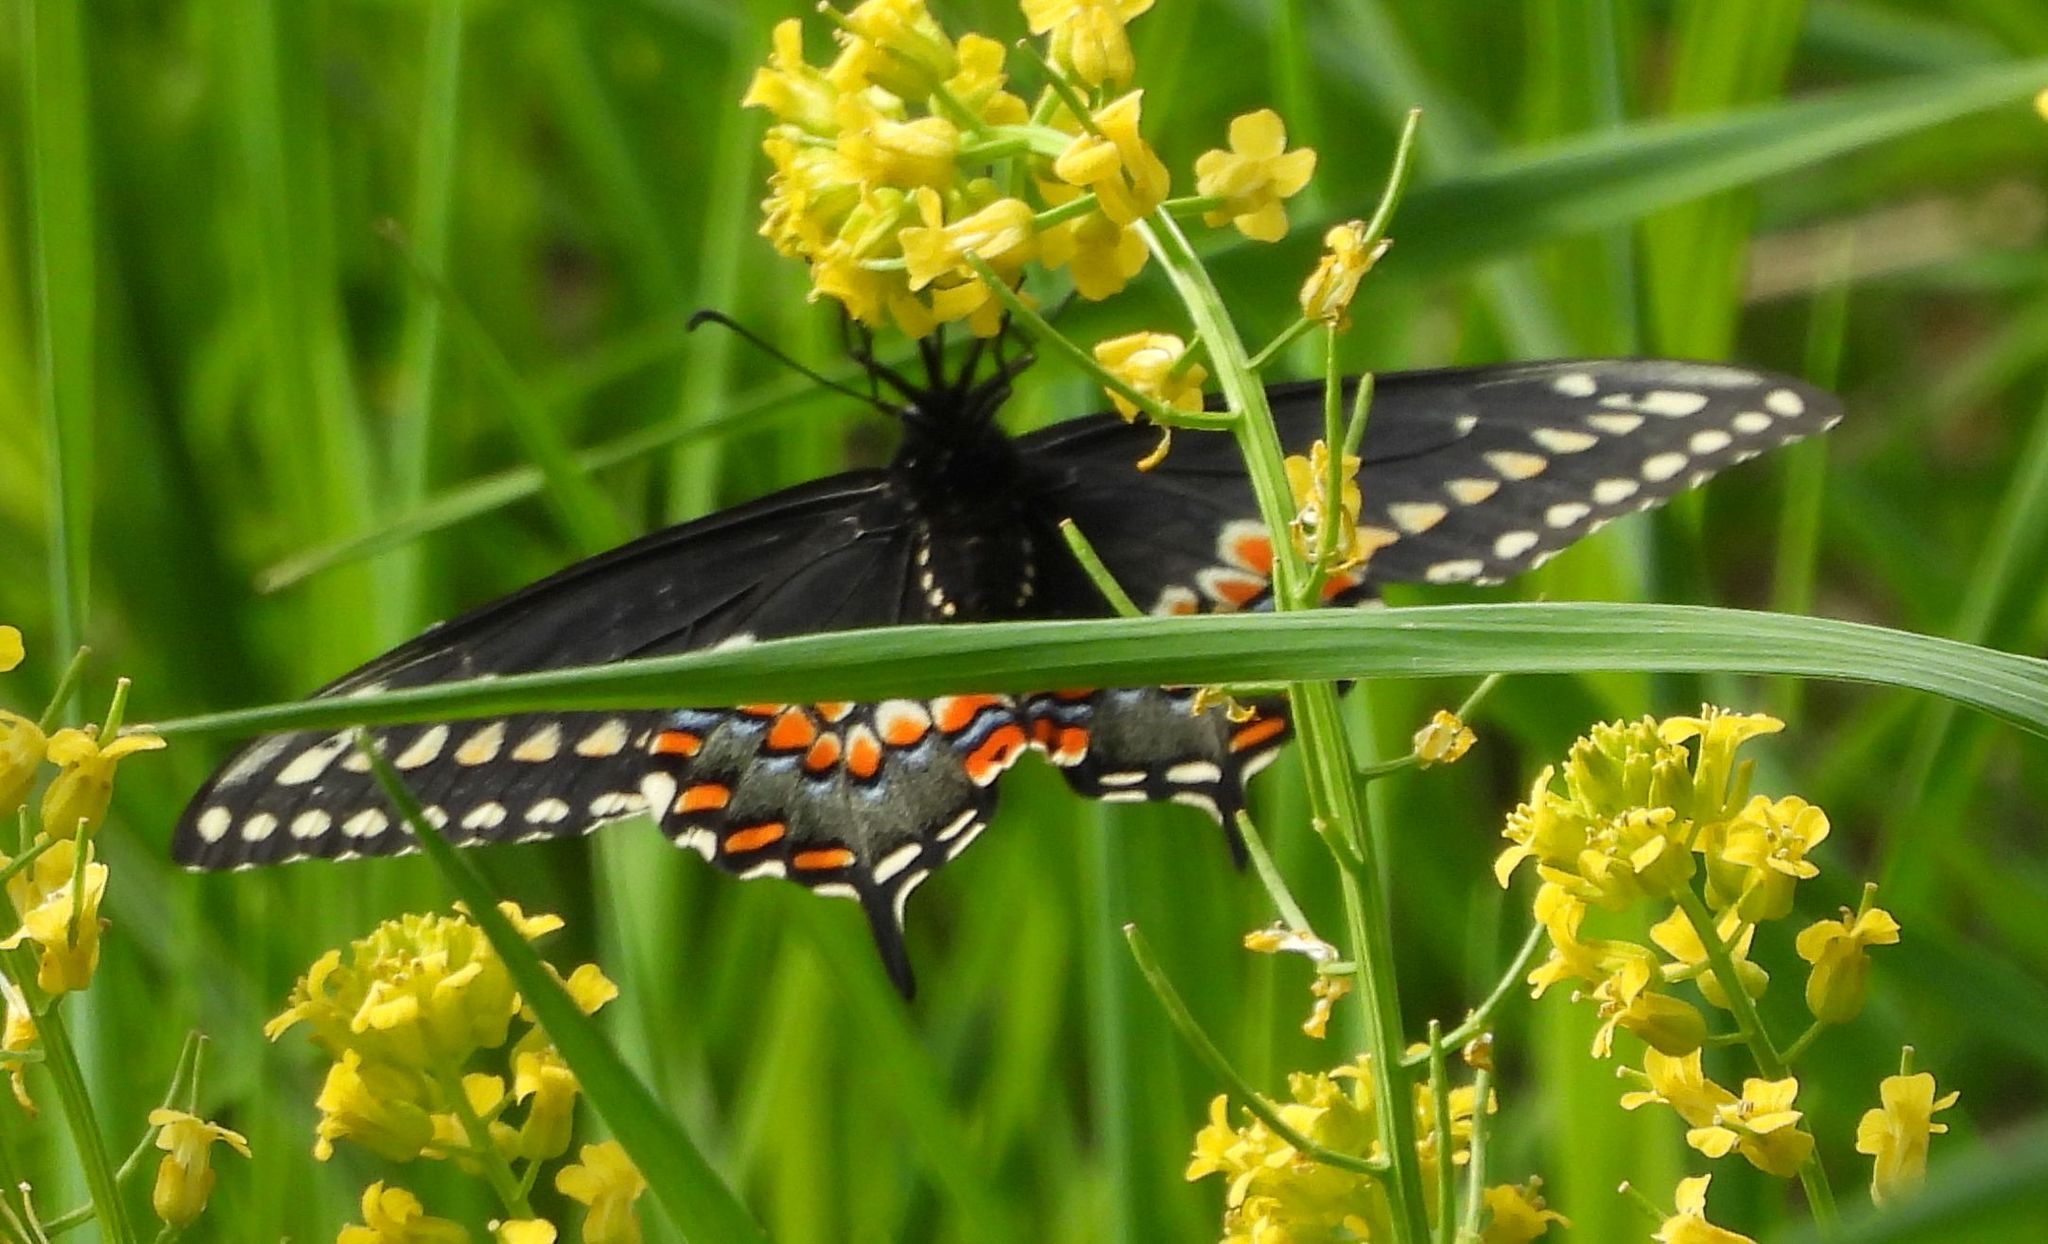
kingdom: Animalia
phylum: Arthropoda
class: Insecta
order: Lepidoptera
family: Papilionidae
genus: Papilio
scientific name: Papilio polyxenes
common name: Black swallowtail
